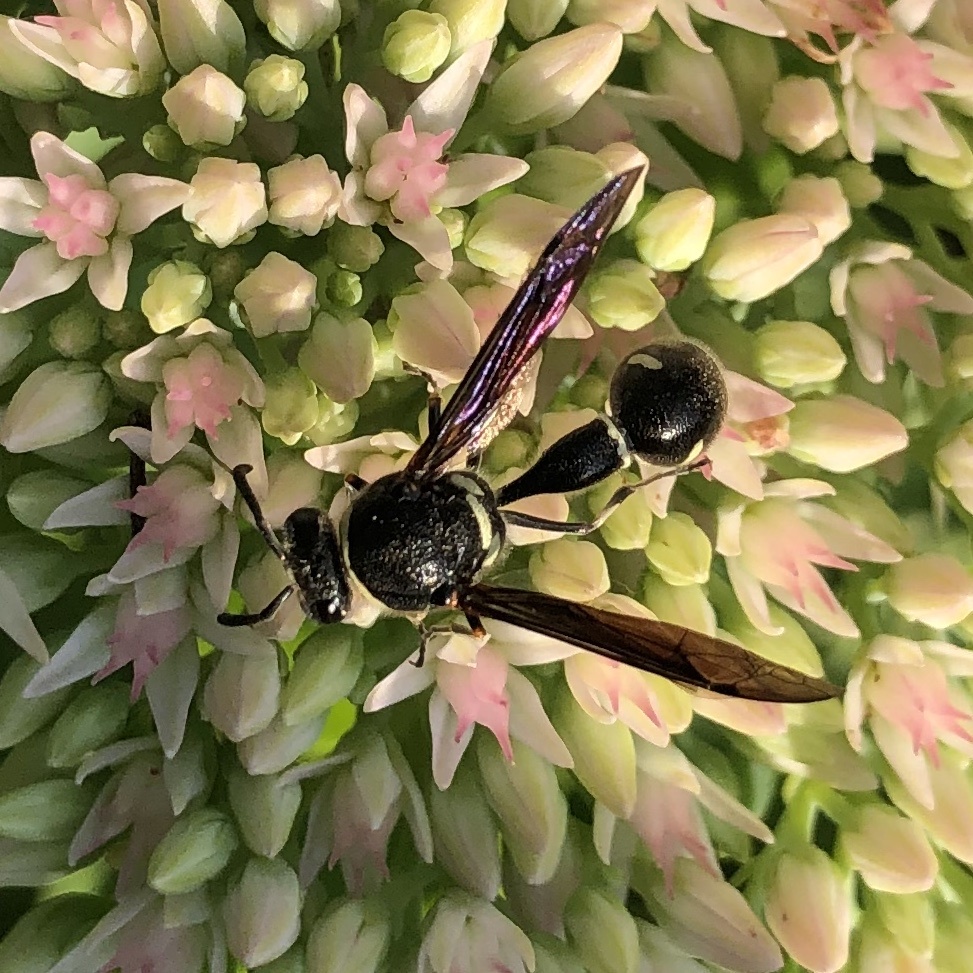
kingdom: Animalia
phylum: Arthropoda
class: Insecta
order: Hymenoptera
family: Vespidae
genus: Eumenes
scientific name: Eumenes fraternus
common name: Fraternal potter wasp
